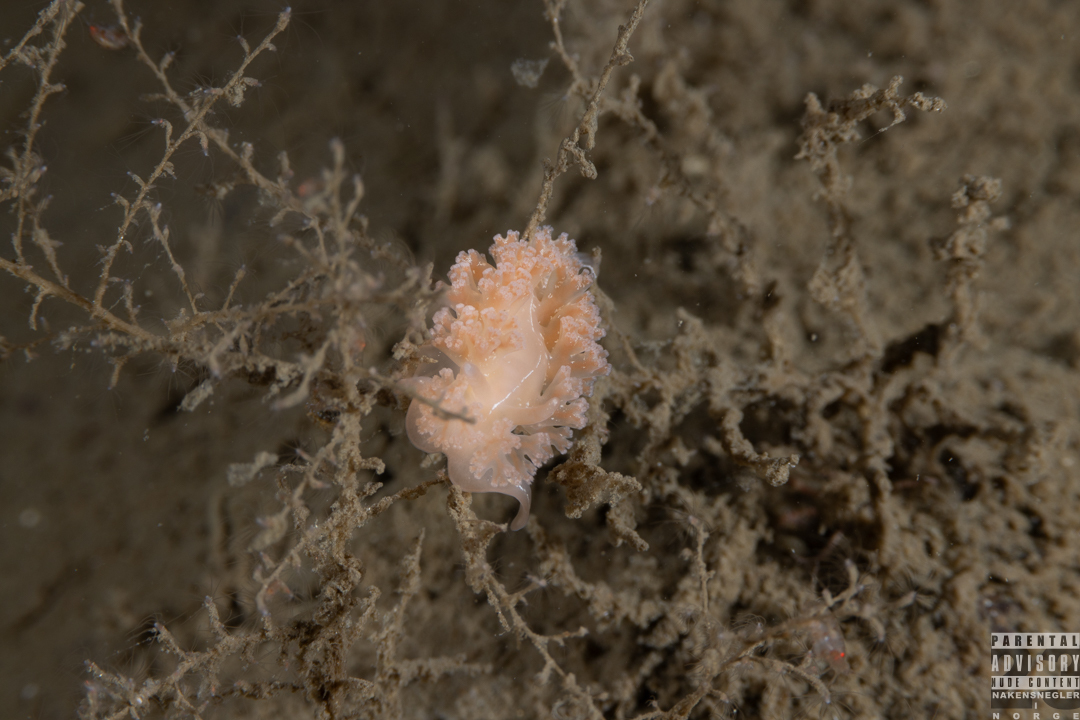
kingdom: Animalia
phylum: Mollusca
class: Gastropoda
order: Nudibranchia
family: Heroidae
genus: Hero
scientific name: Hero formosa
